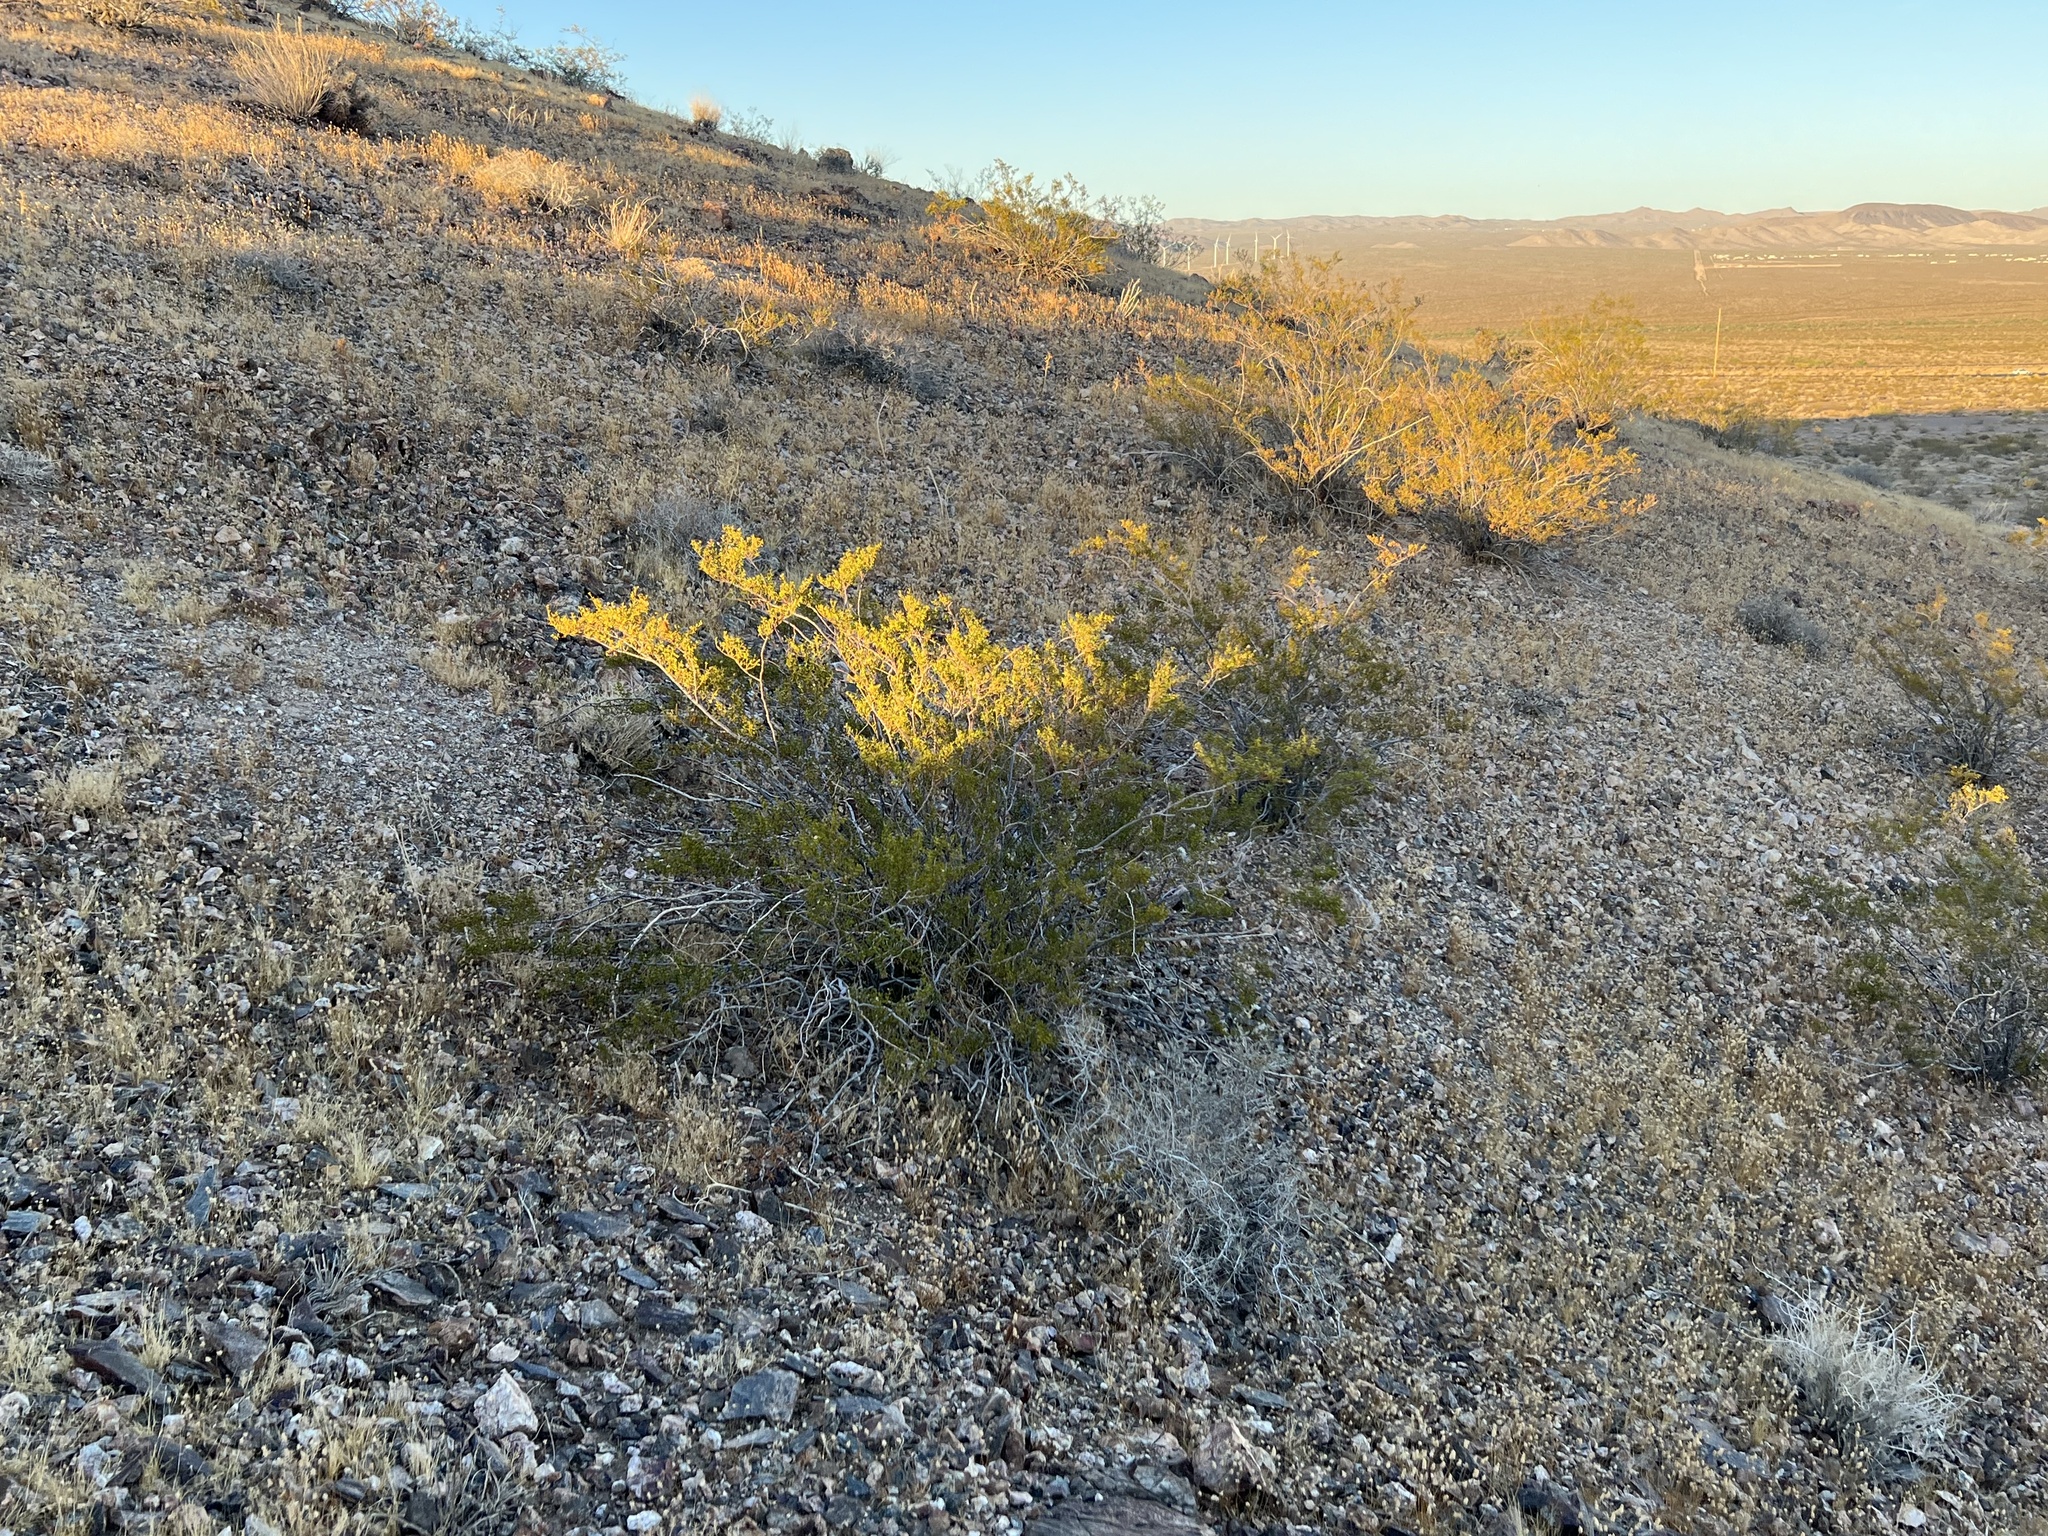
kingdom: Plantae
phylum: Tracheophyta
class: Magnoliopsida
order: Zygophyllales
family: Zygophyllaceae
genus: Larrea
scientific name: Larrea tridentata
